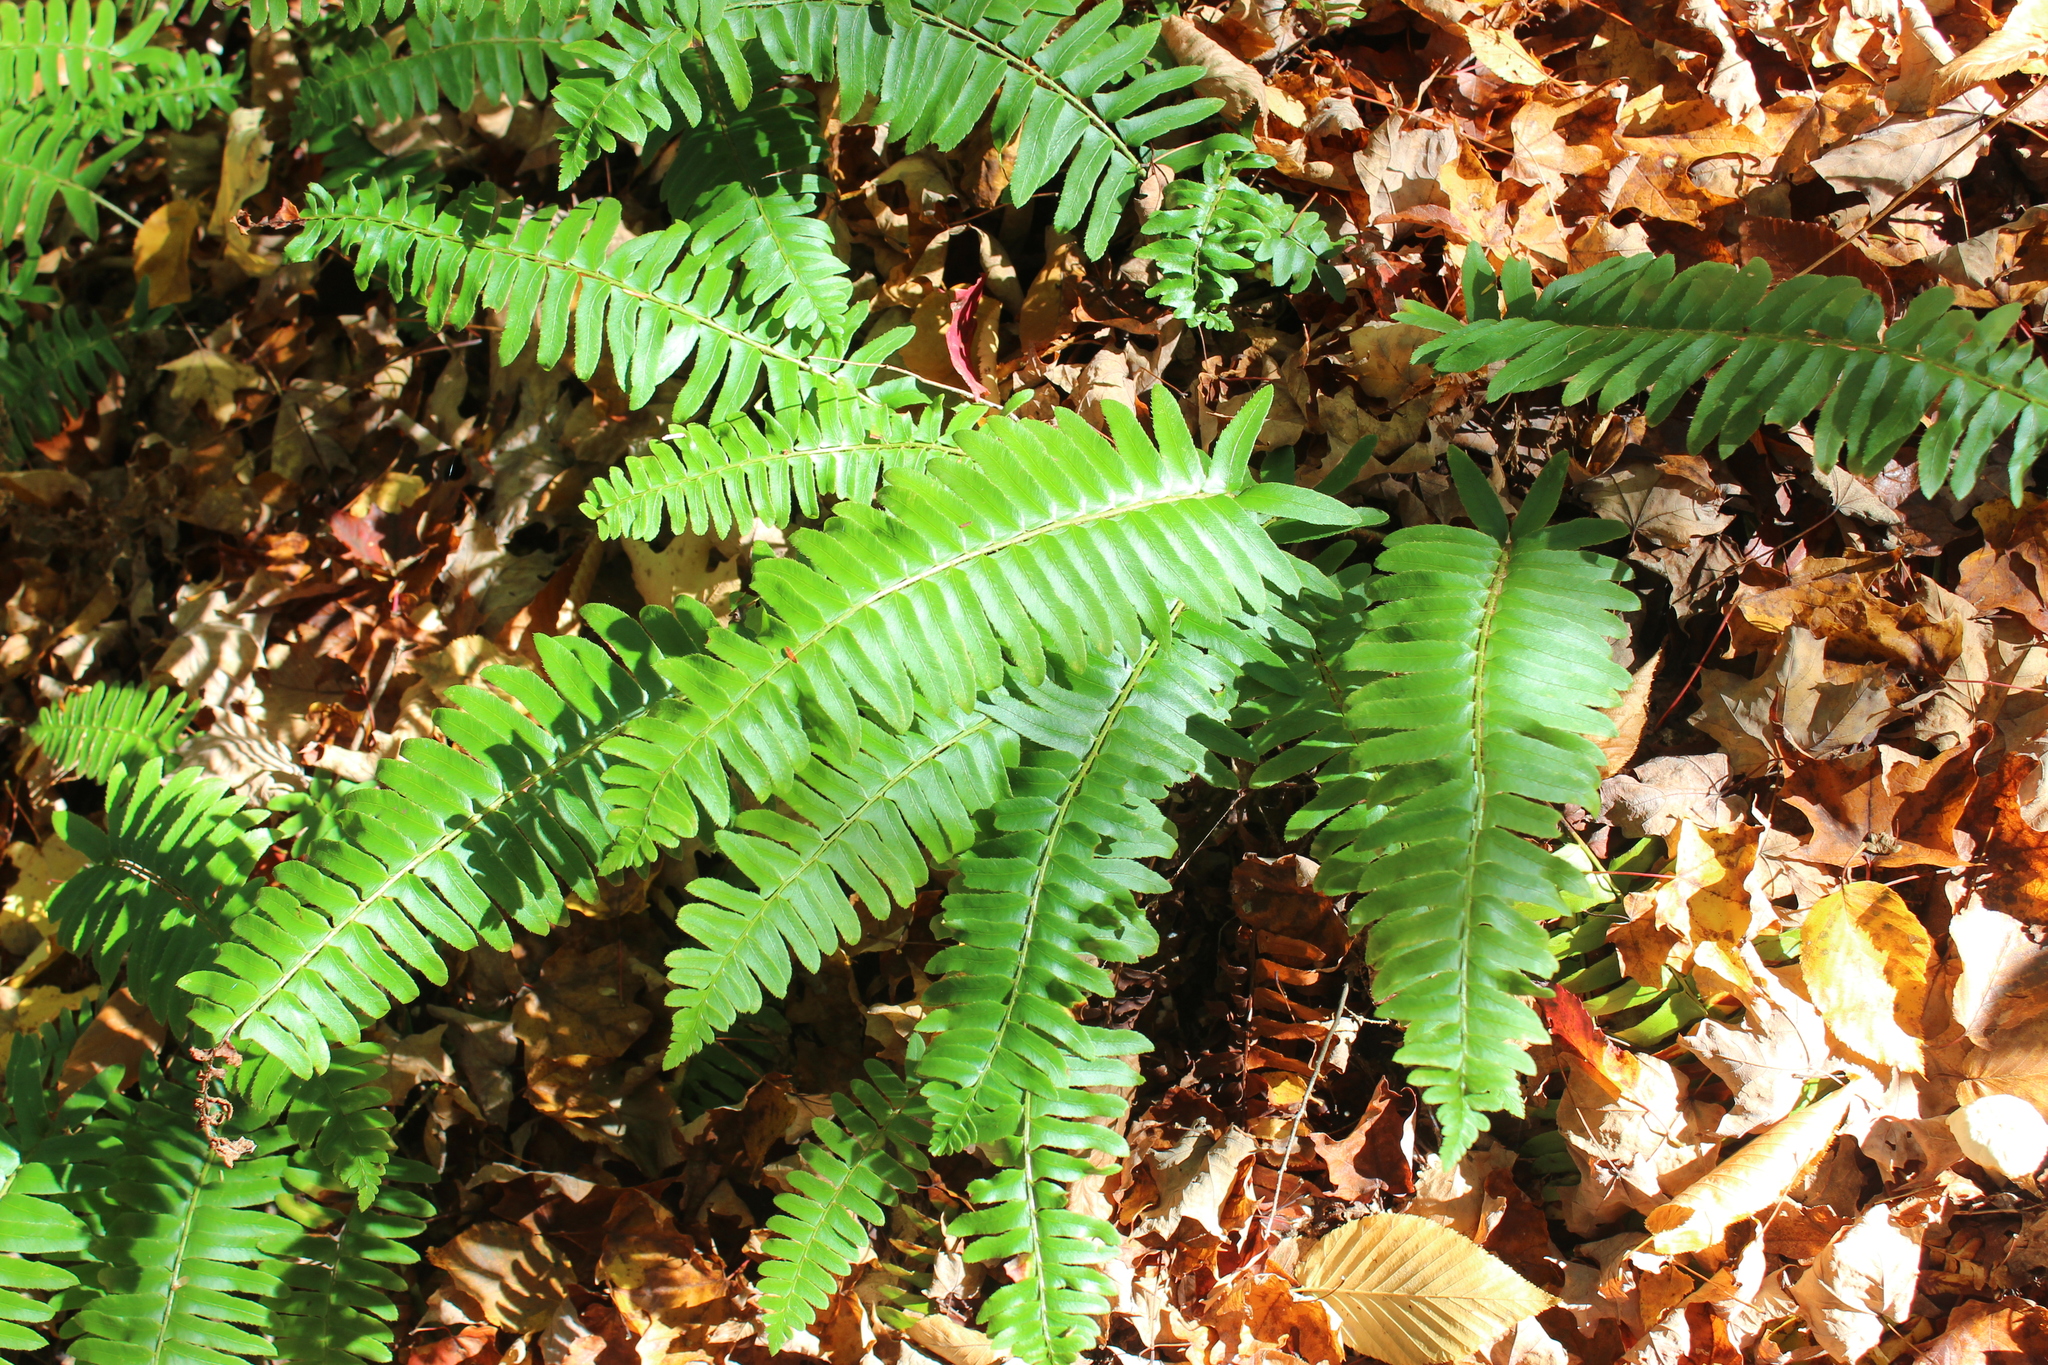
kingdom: Plantae
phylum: Tracheophyta
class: Polypodiopsida
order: Polypodiales
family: Dryopteridaceae
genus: Polystichum
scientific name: Polystichum acrostichoides
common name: Christmas fern
